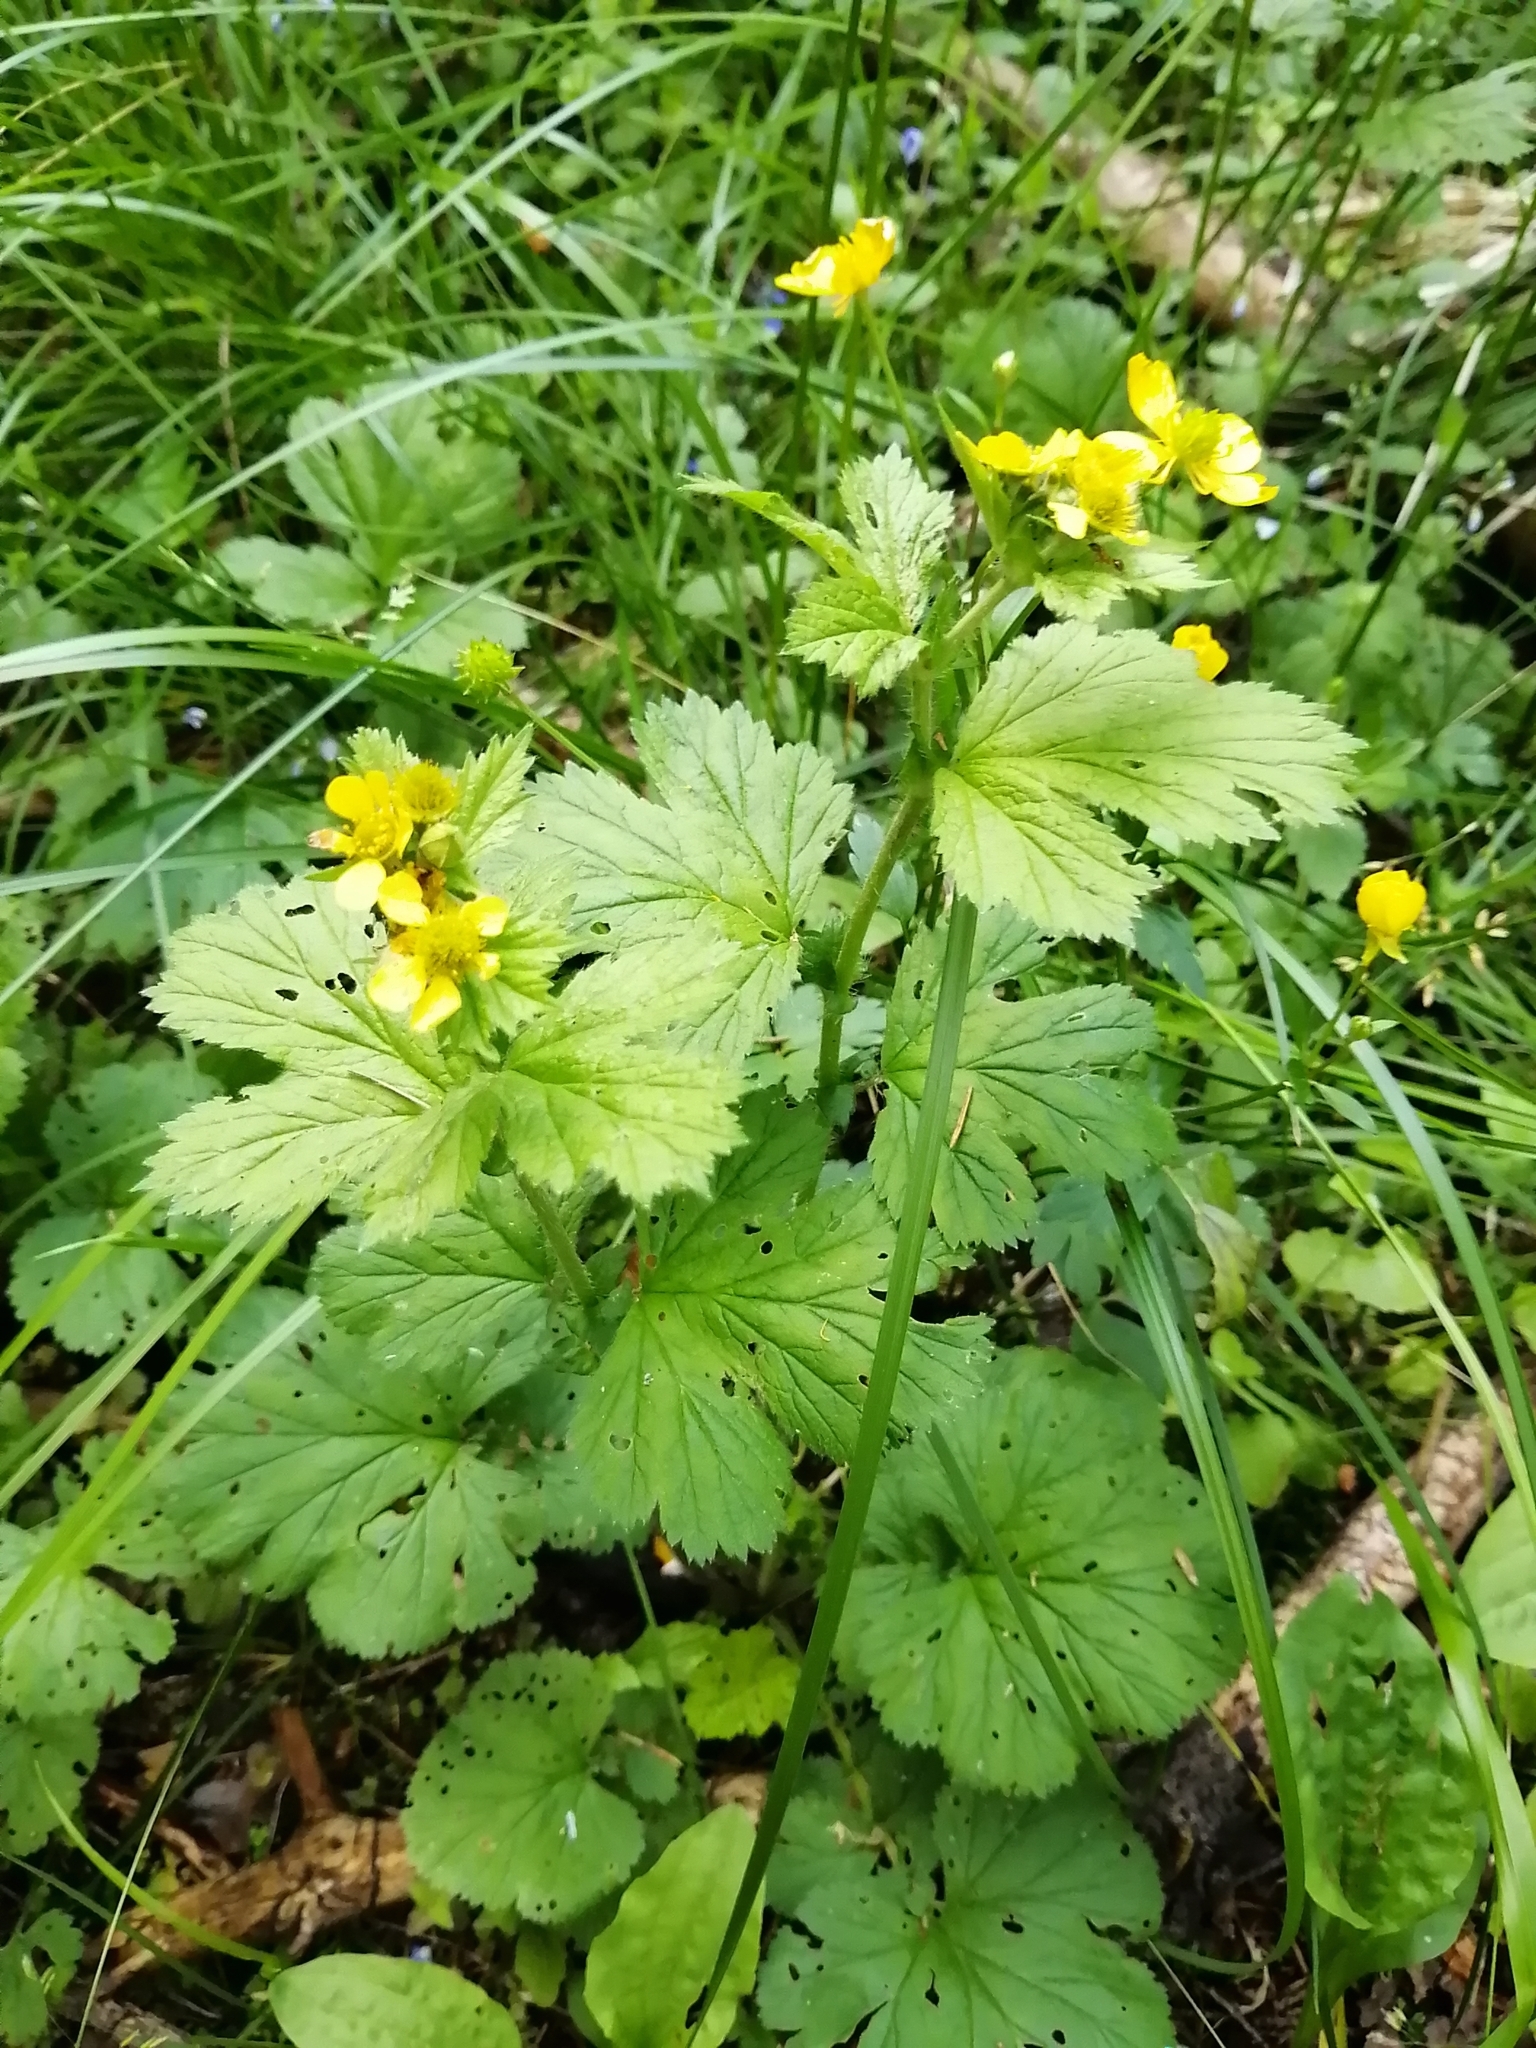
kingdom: Plantae
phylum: Tracheophyta
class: Magnoliopsida
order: Rosales
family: Rosaceae
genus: Geum
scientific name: Geum macrophyllum
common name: Large-leaved avens
